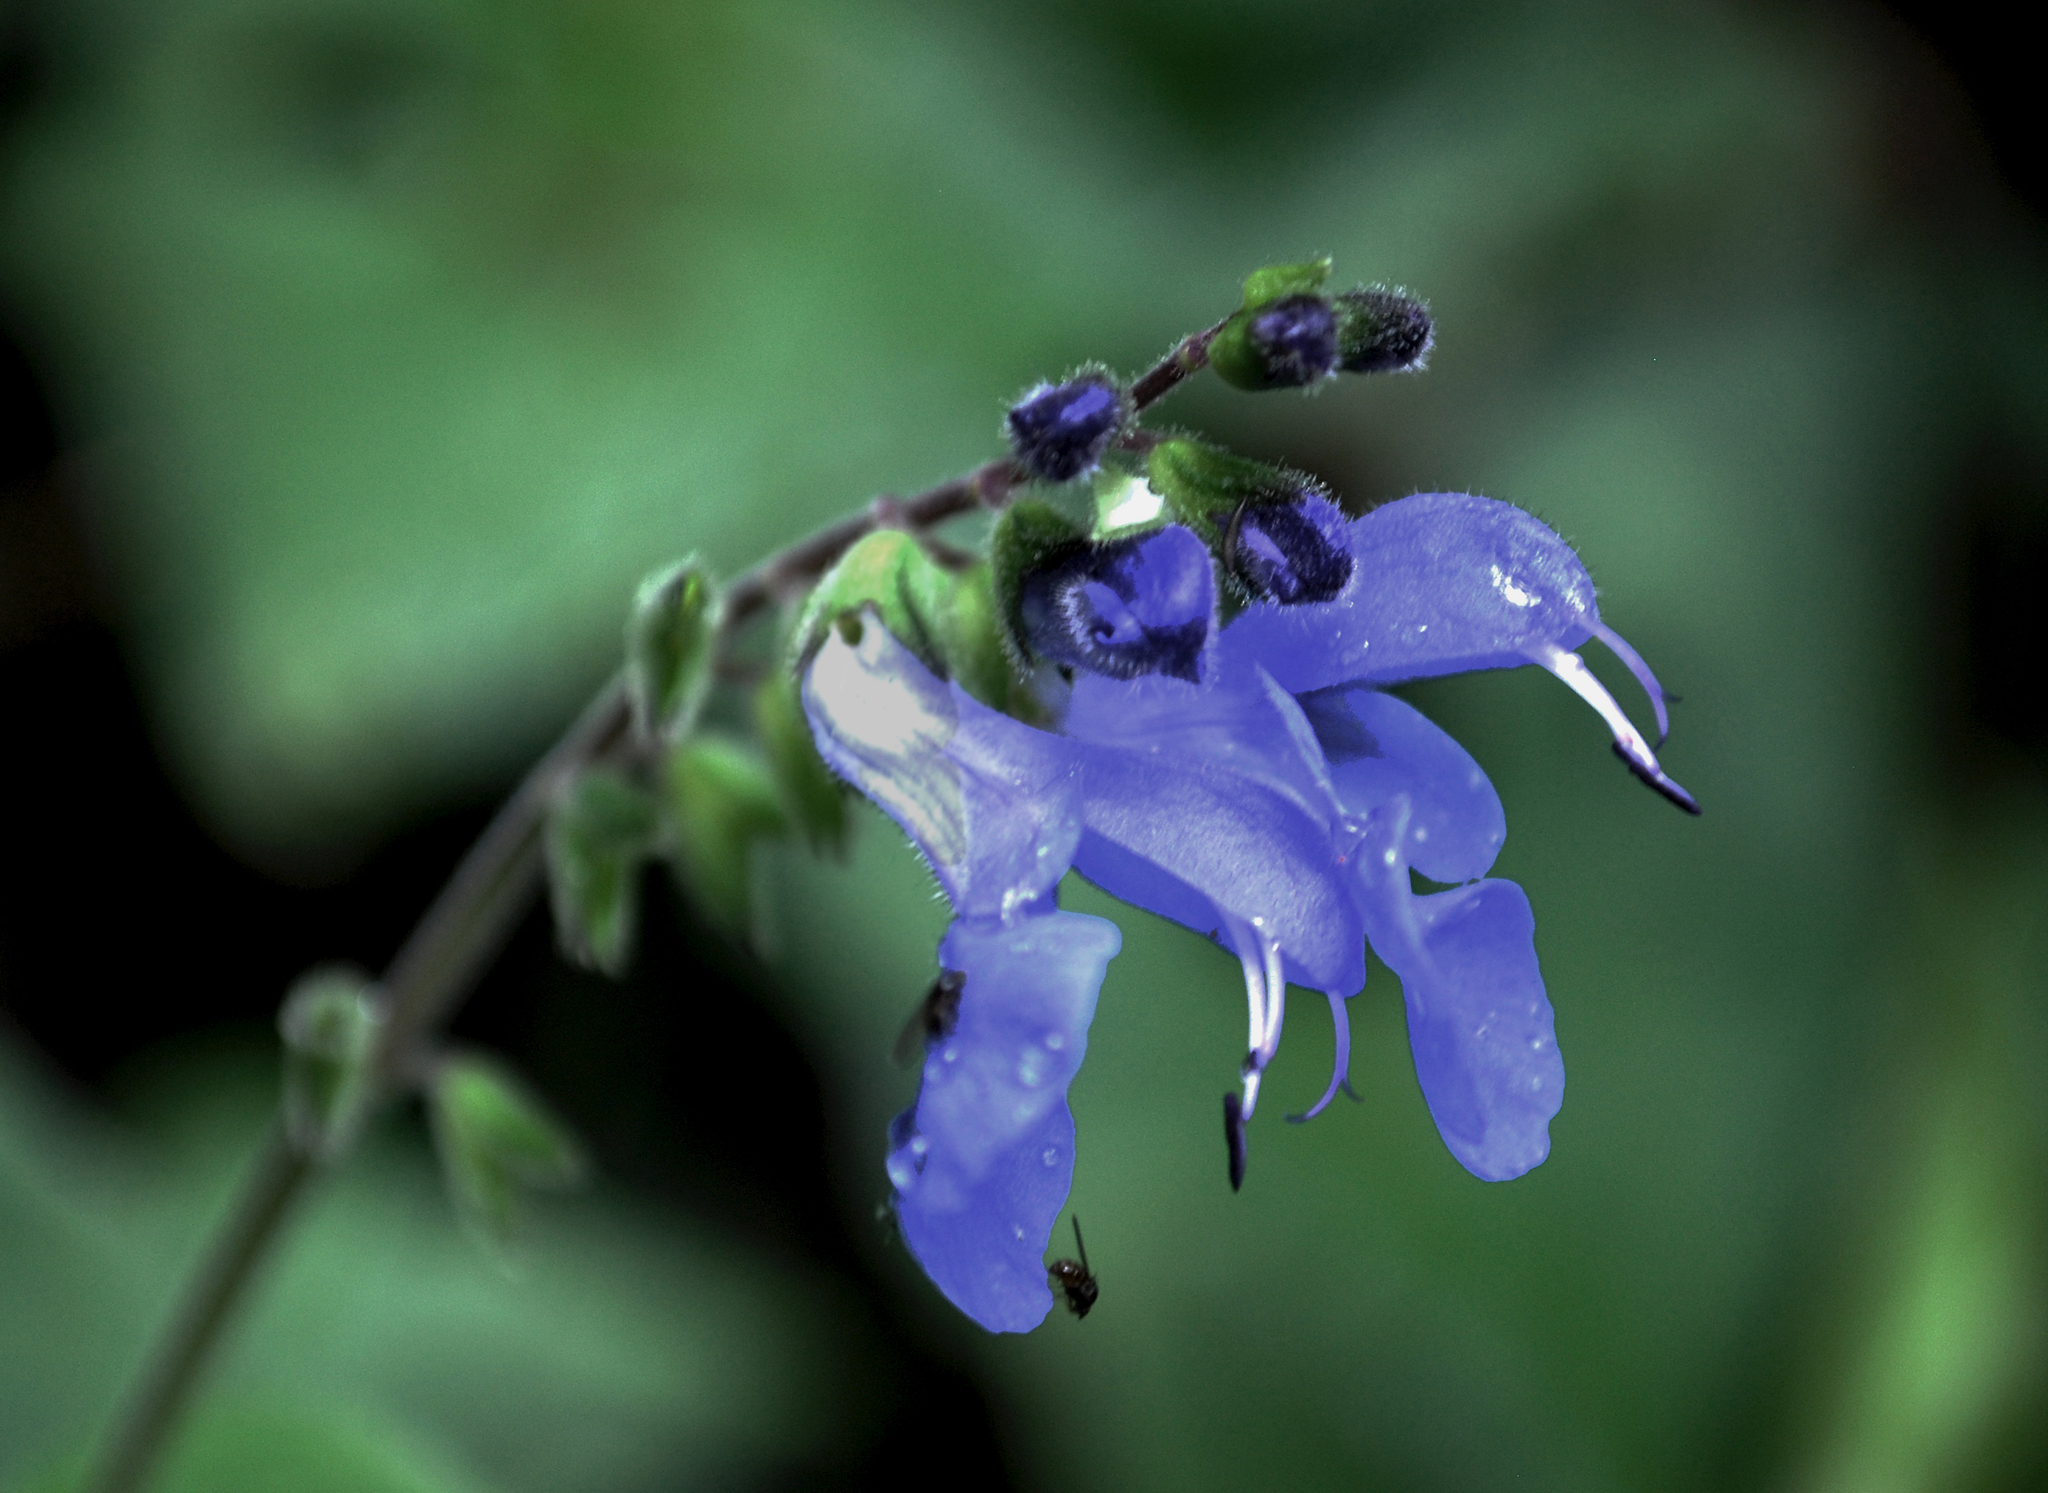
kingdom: Plantae
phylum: Tracheophyta
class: Magnoliopsida
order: Lamiales
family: Lamiaceae
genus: Salvia
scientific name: Salvia scutellarioides
